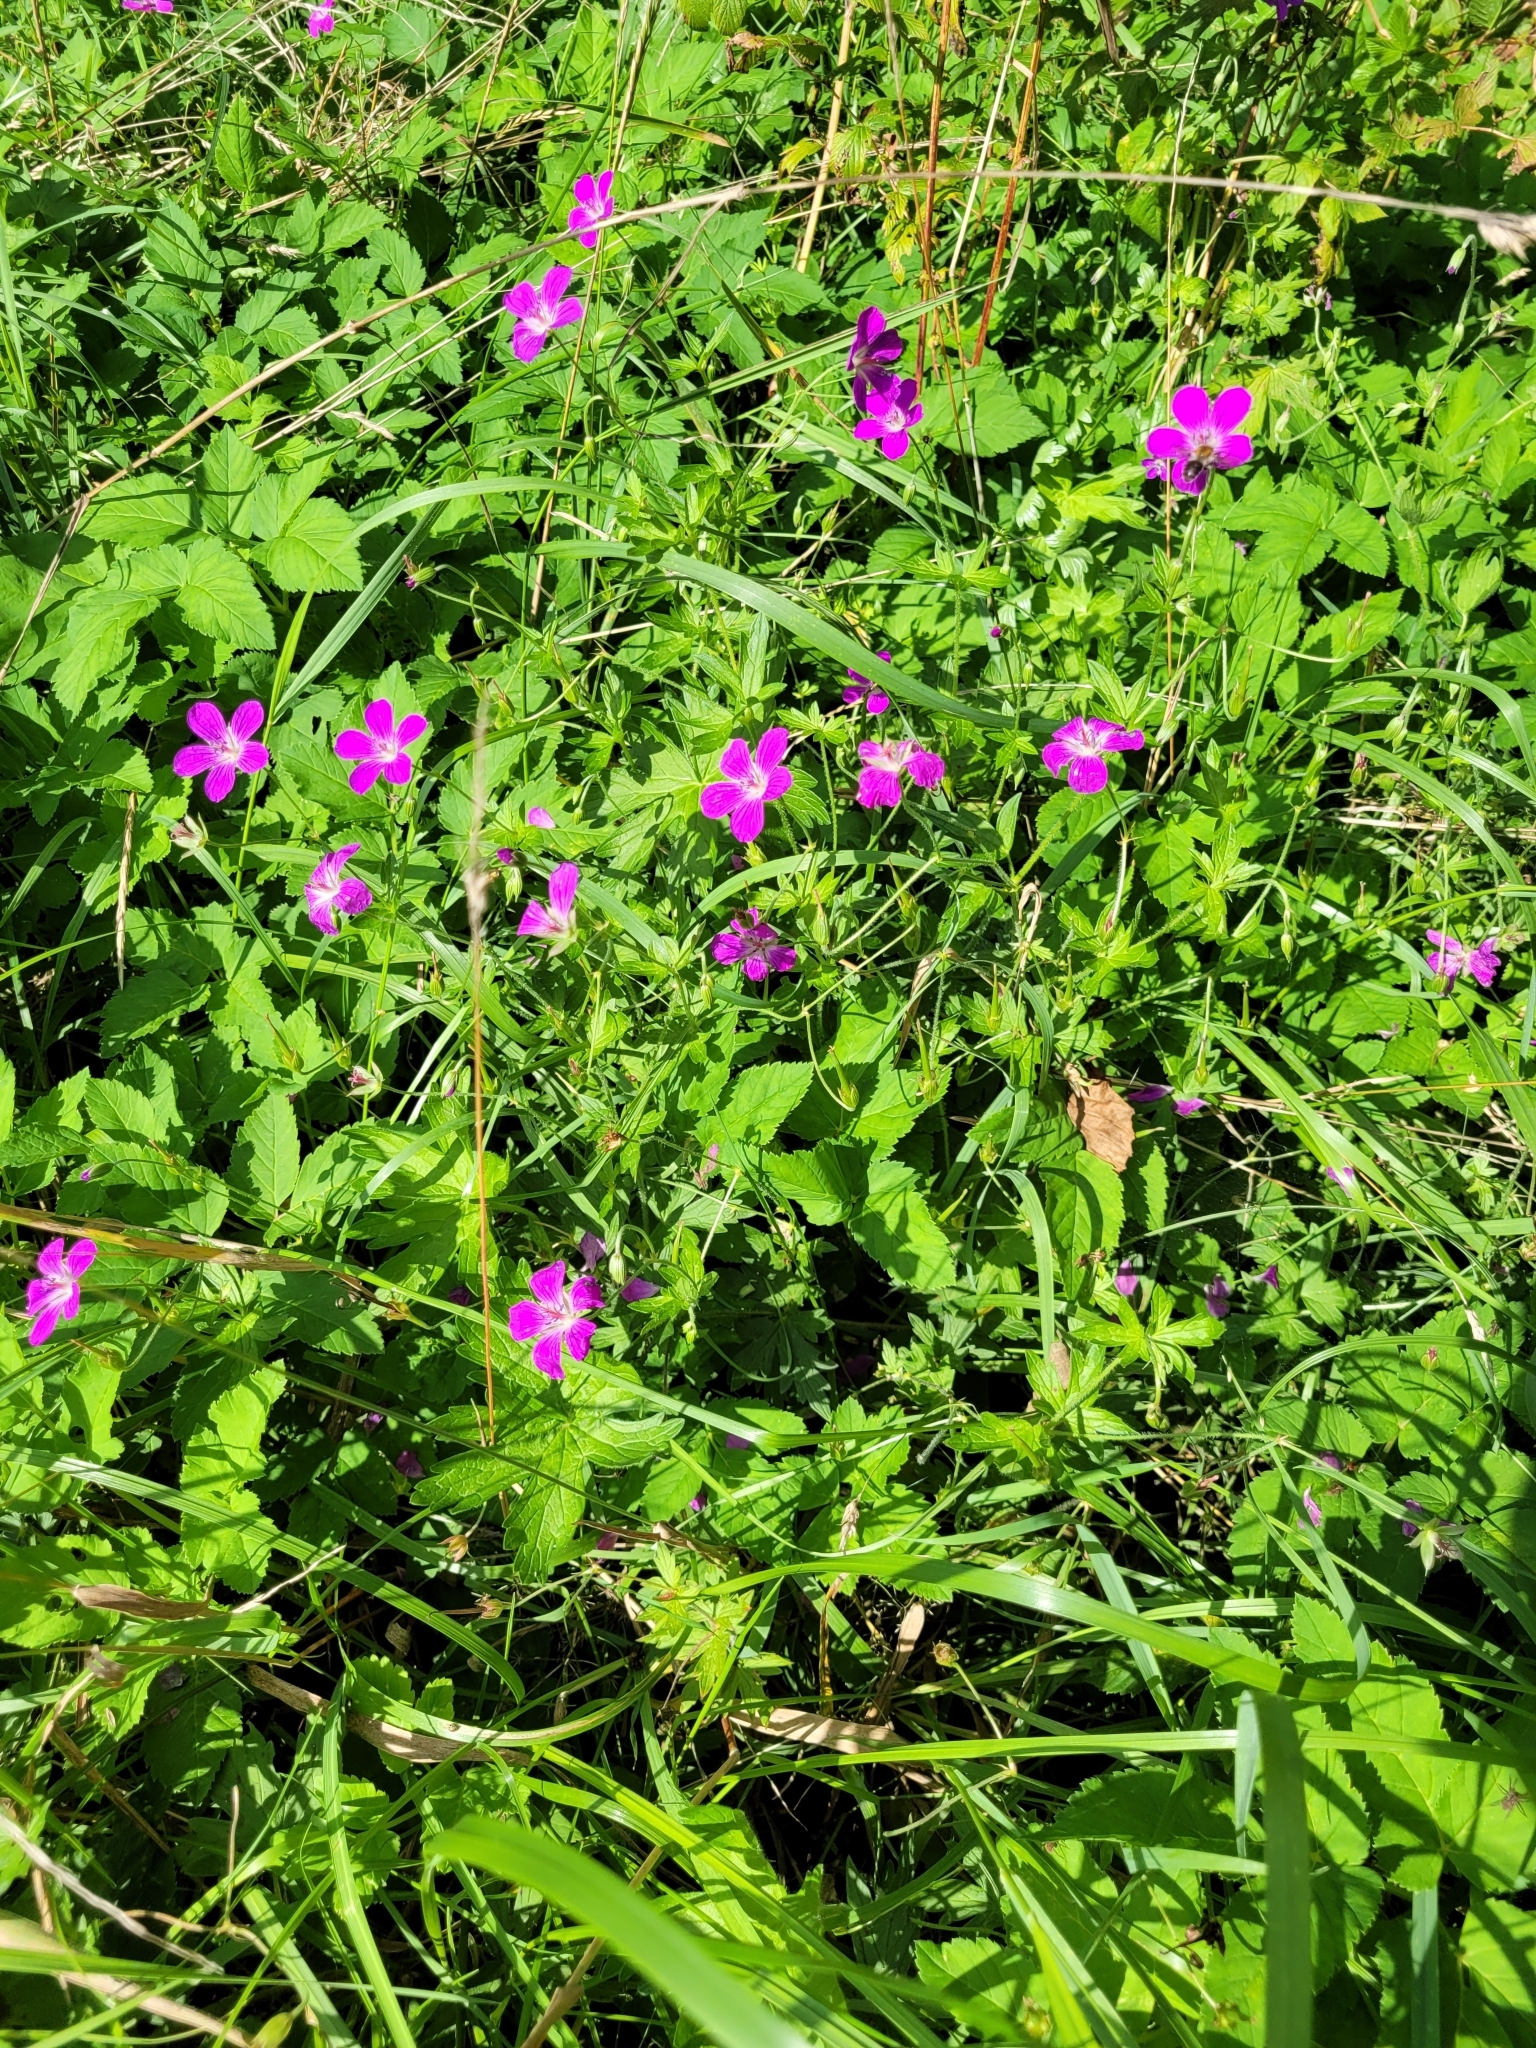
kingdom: Plantae
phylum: Tracheophyta
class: Magnoliopsida
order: Geraniales
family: Geraniaceae
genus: Geranium
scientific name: Geranium palustre
